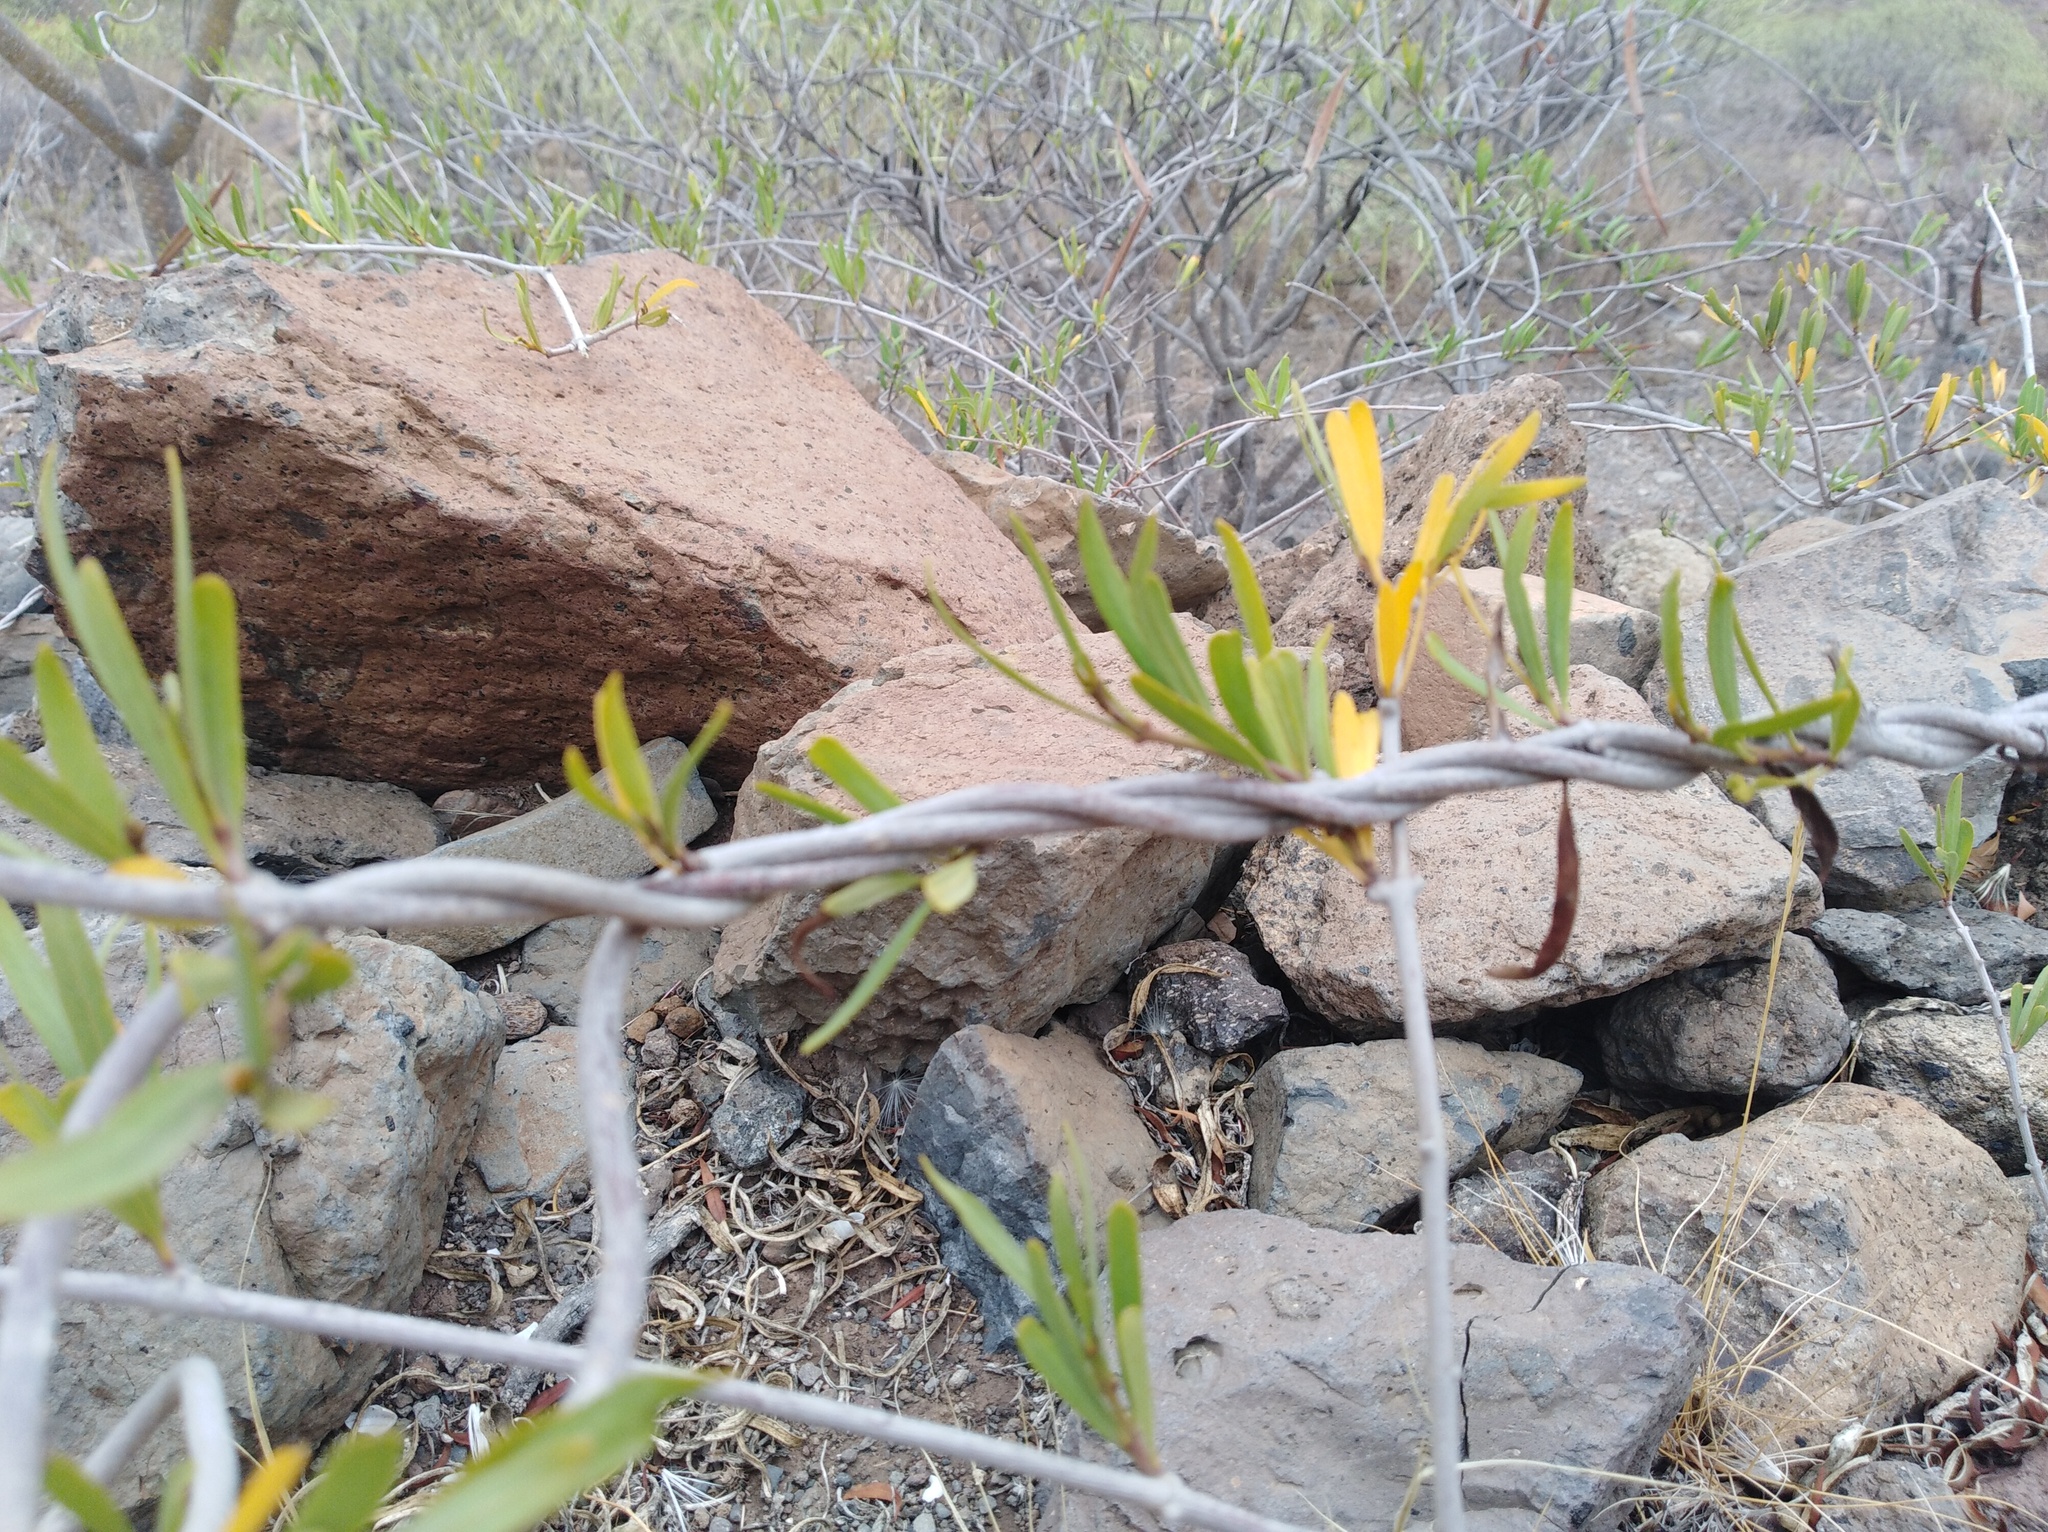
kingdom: Plantae
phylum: Tracheophyta
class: Magnoliopsida
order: Gentianales
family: Apocynaceae
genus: Periploca
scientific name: Periploca laevigata
